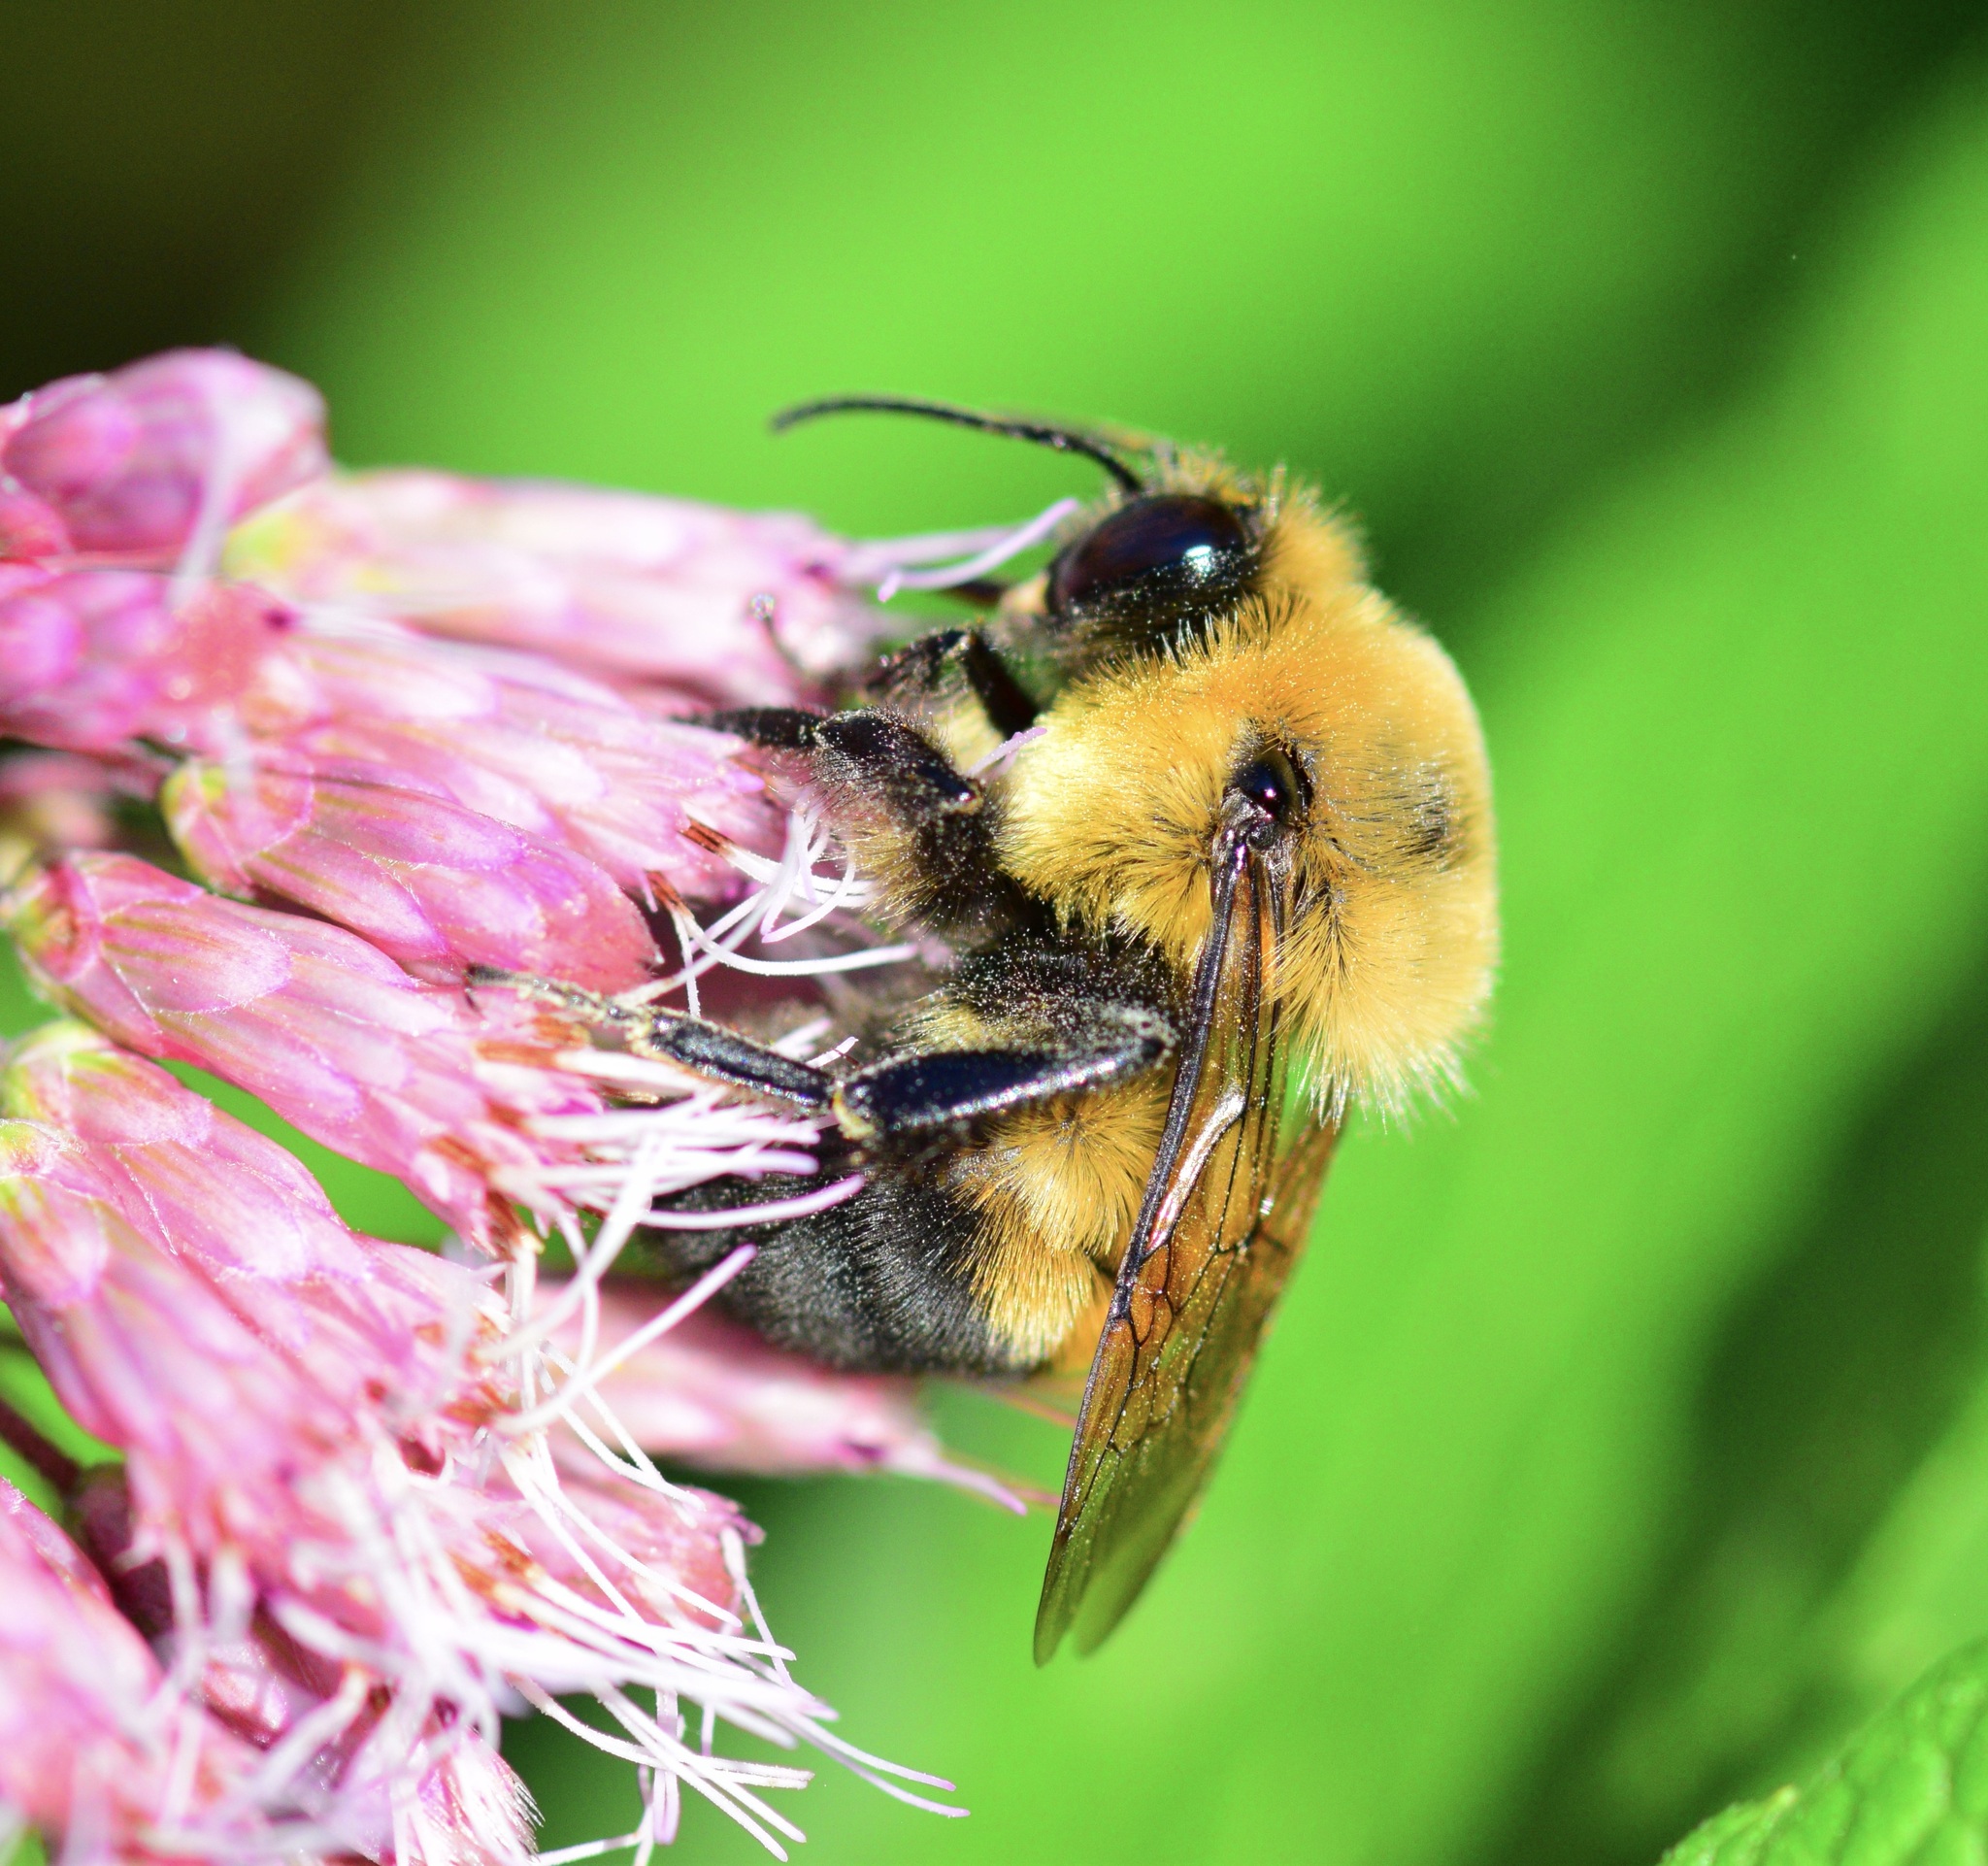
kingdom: Animalia
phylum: Arthropoda
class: Insecta
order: Hymenoptera
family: Apidae
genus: Bombus
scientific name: Bombus griseocollis
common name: Brown-belted bumble bee
